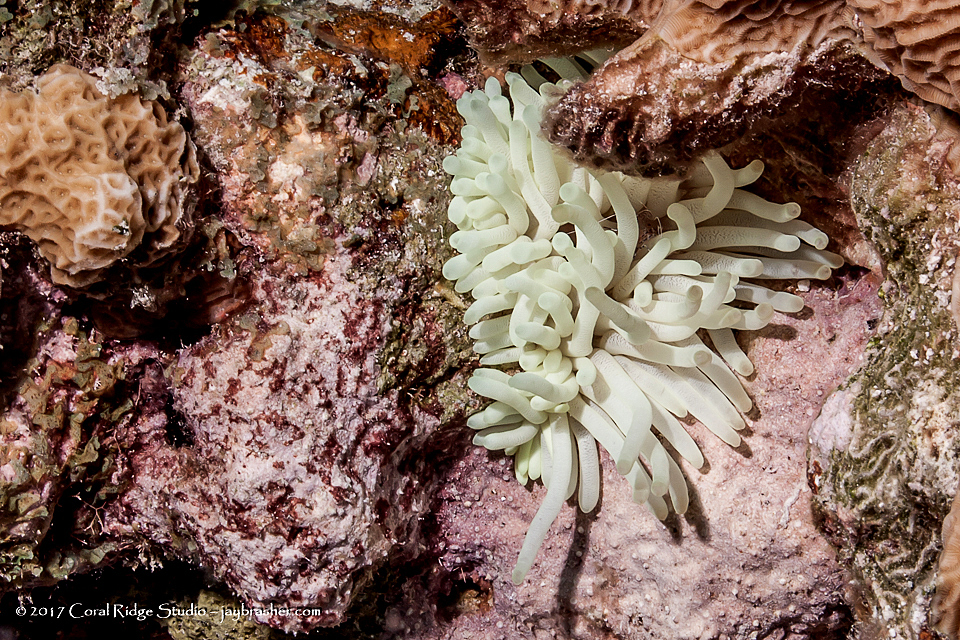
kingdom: Animalia
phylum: Cnidaria
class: Anthozoa
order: Actiniaria
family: Actiniidae
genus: Condylactis
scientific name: Condylactis gigantea
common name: Giant caribbean anemone
